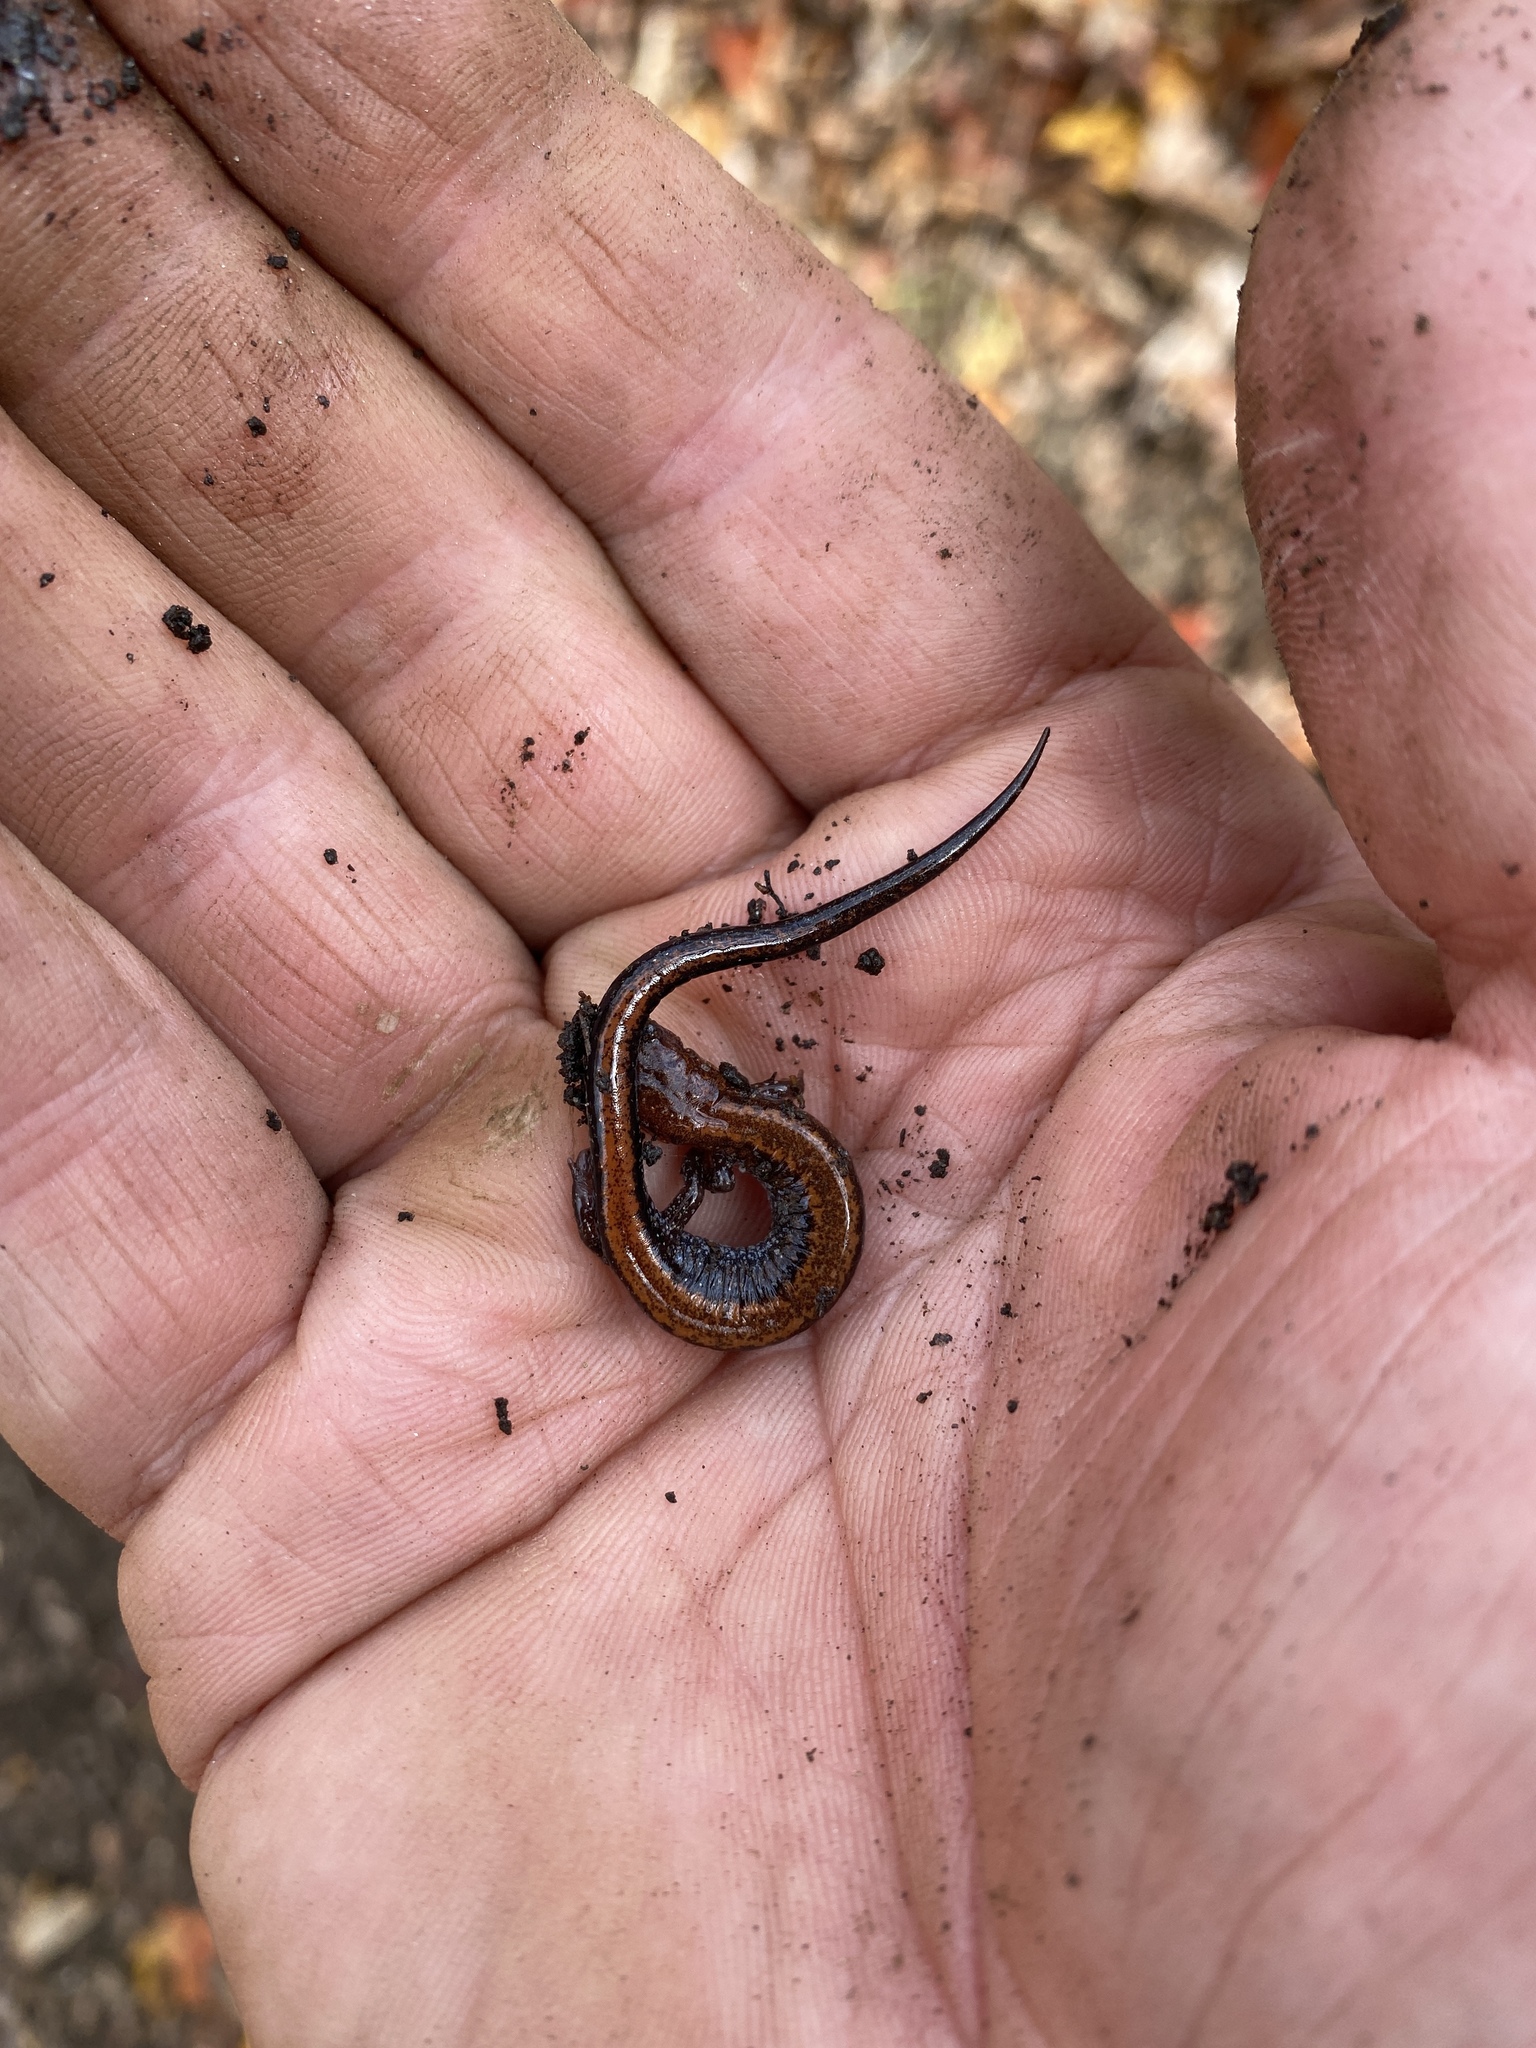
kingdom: Animalia
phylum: Chordata
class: Amphibia
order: Caudata
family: Plethodontidae
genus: Plethodon
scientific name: Plethodon cinereus
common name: Redback salamander
